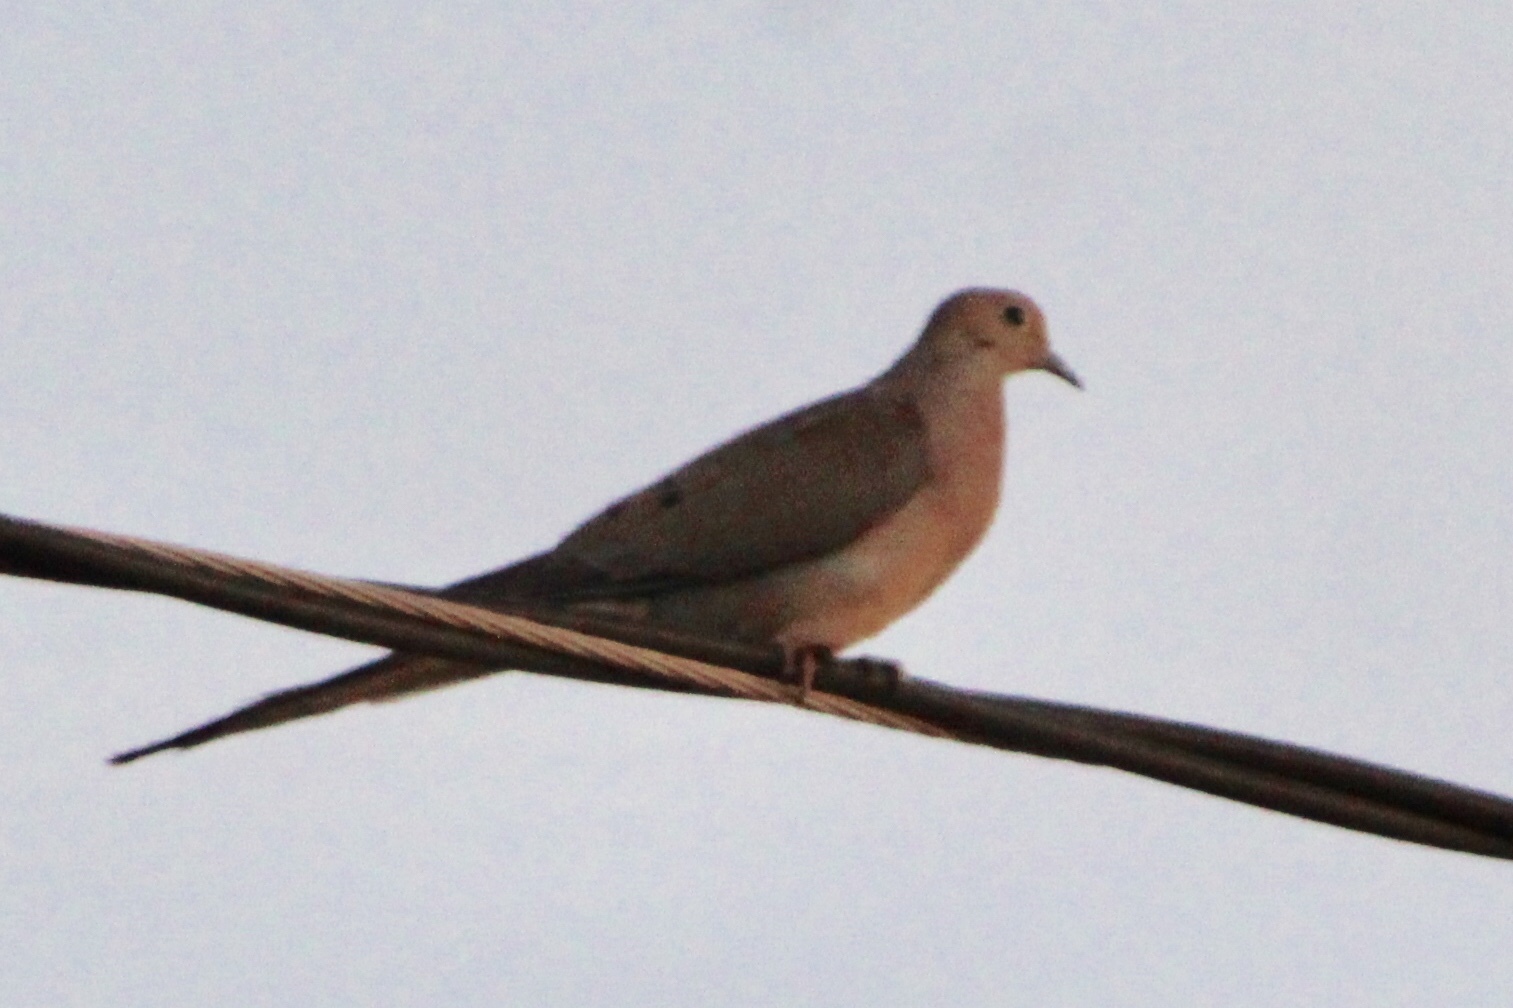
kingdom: Animalia
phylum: Chordata
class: Aves
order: Columbiformes
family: Columbidae
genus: Zenaida
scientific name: Zenaida macroura
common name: Mourning dove
